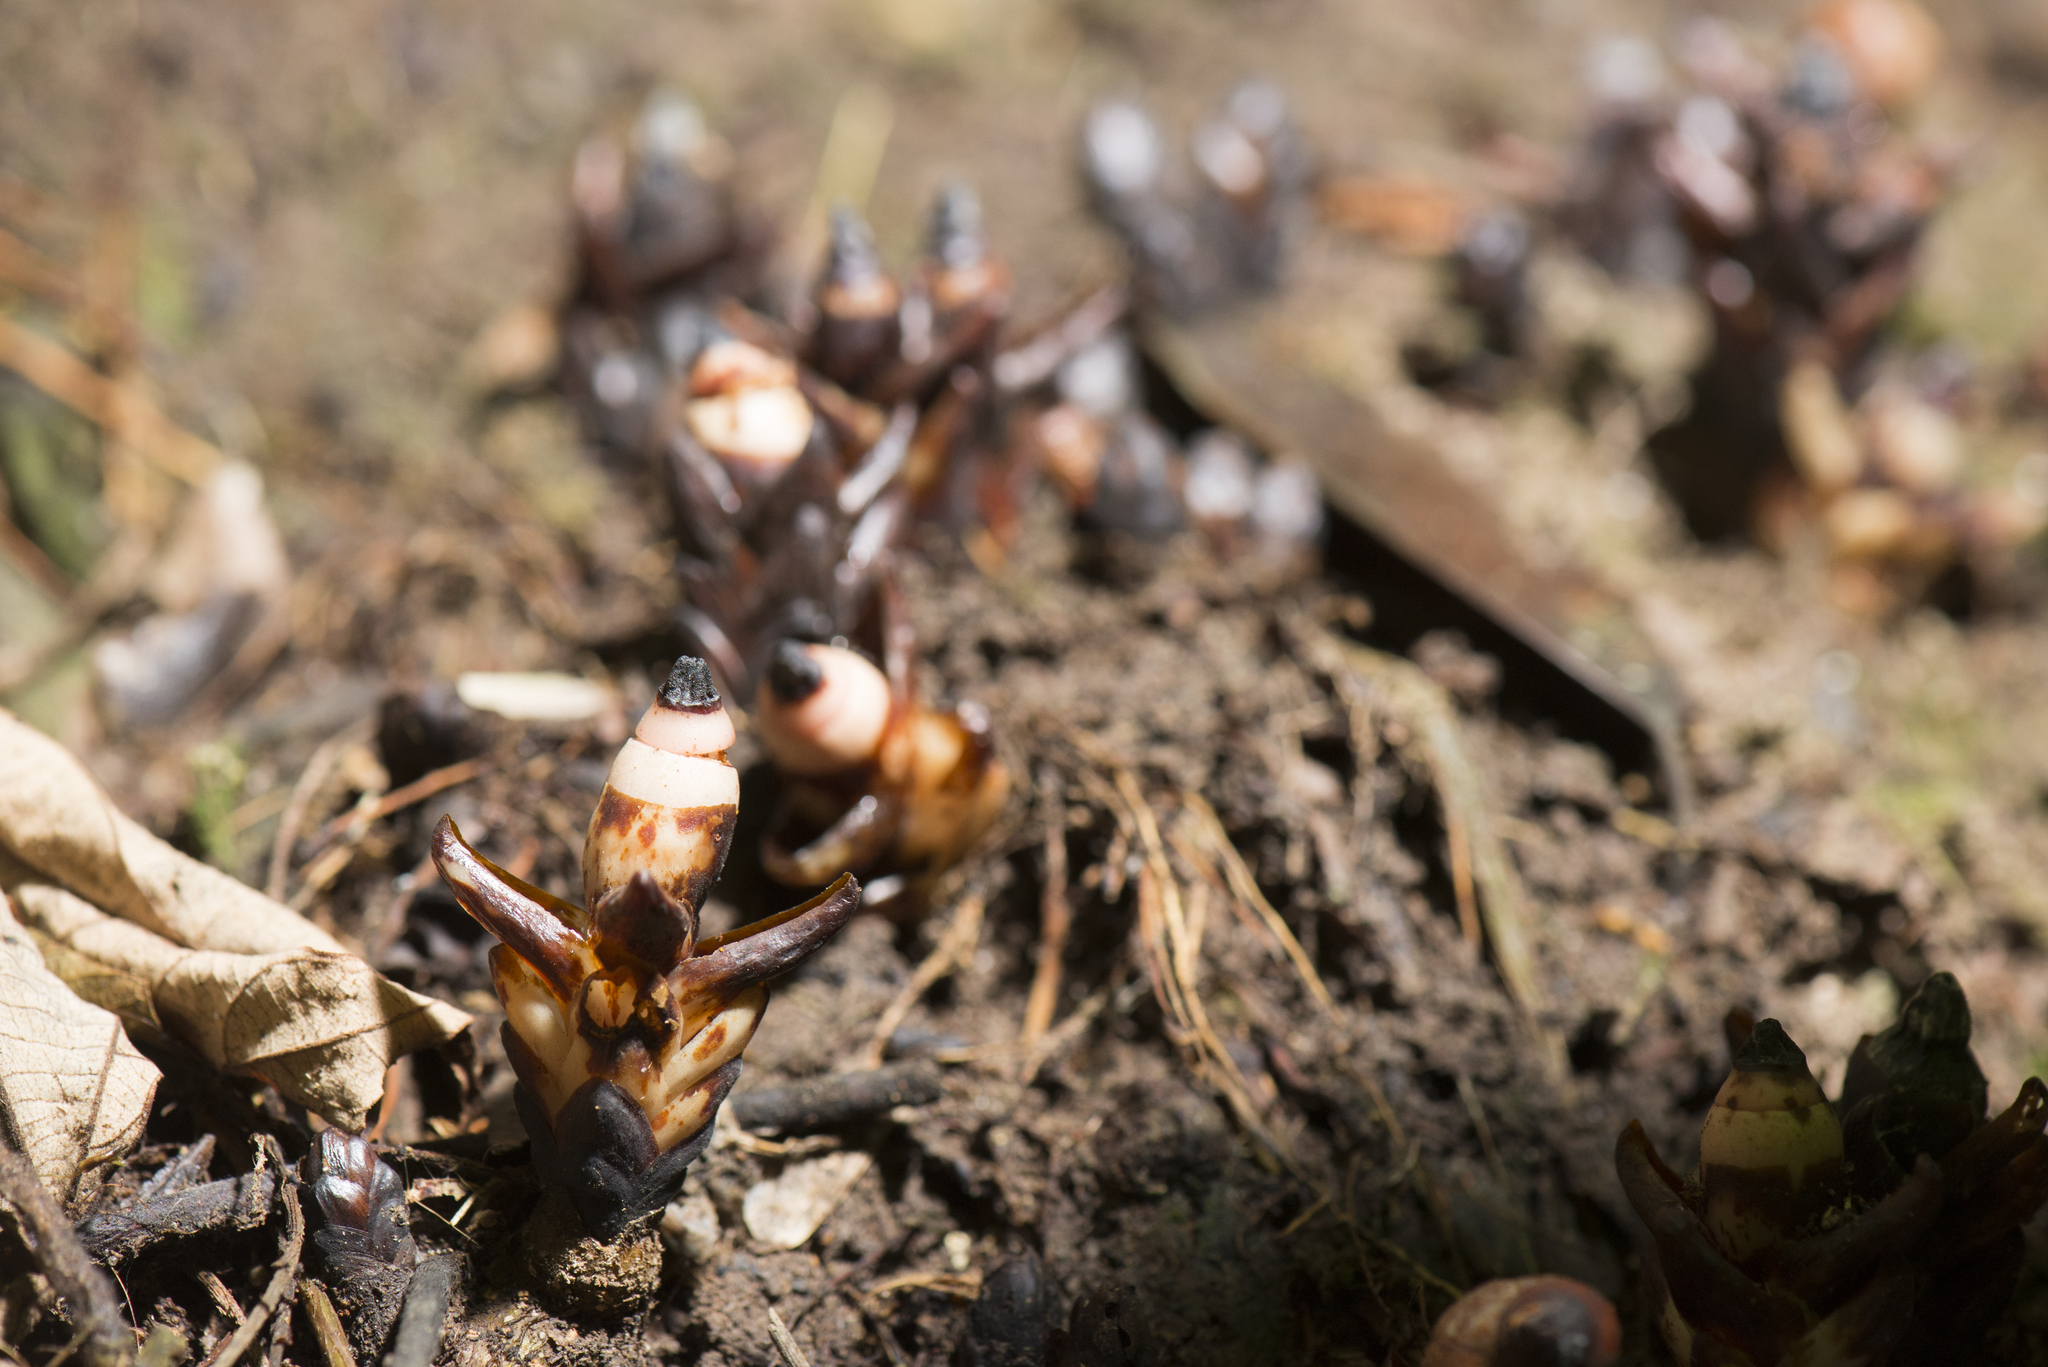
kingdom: Plantae
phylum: Tracheophyta
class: Magnoliopsida
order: Ericales
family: Mitrastemonaceae
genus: Mitrastemon
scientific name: Mitrastemon yamamotoi
